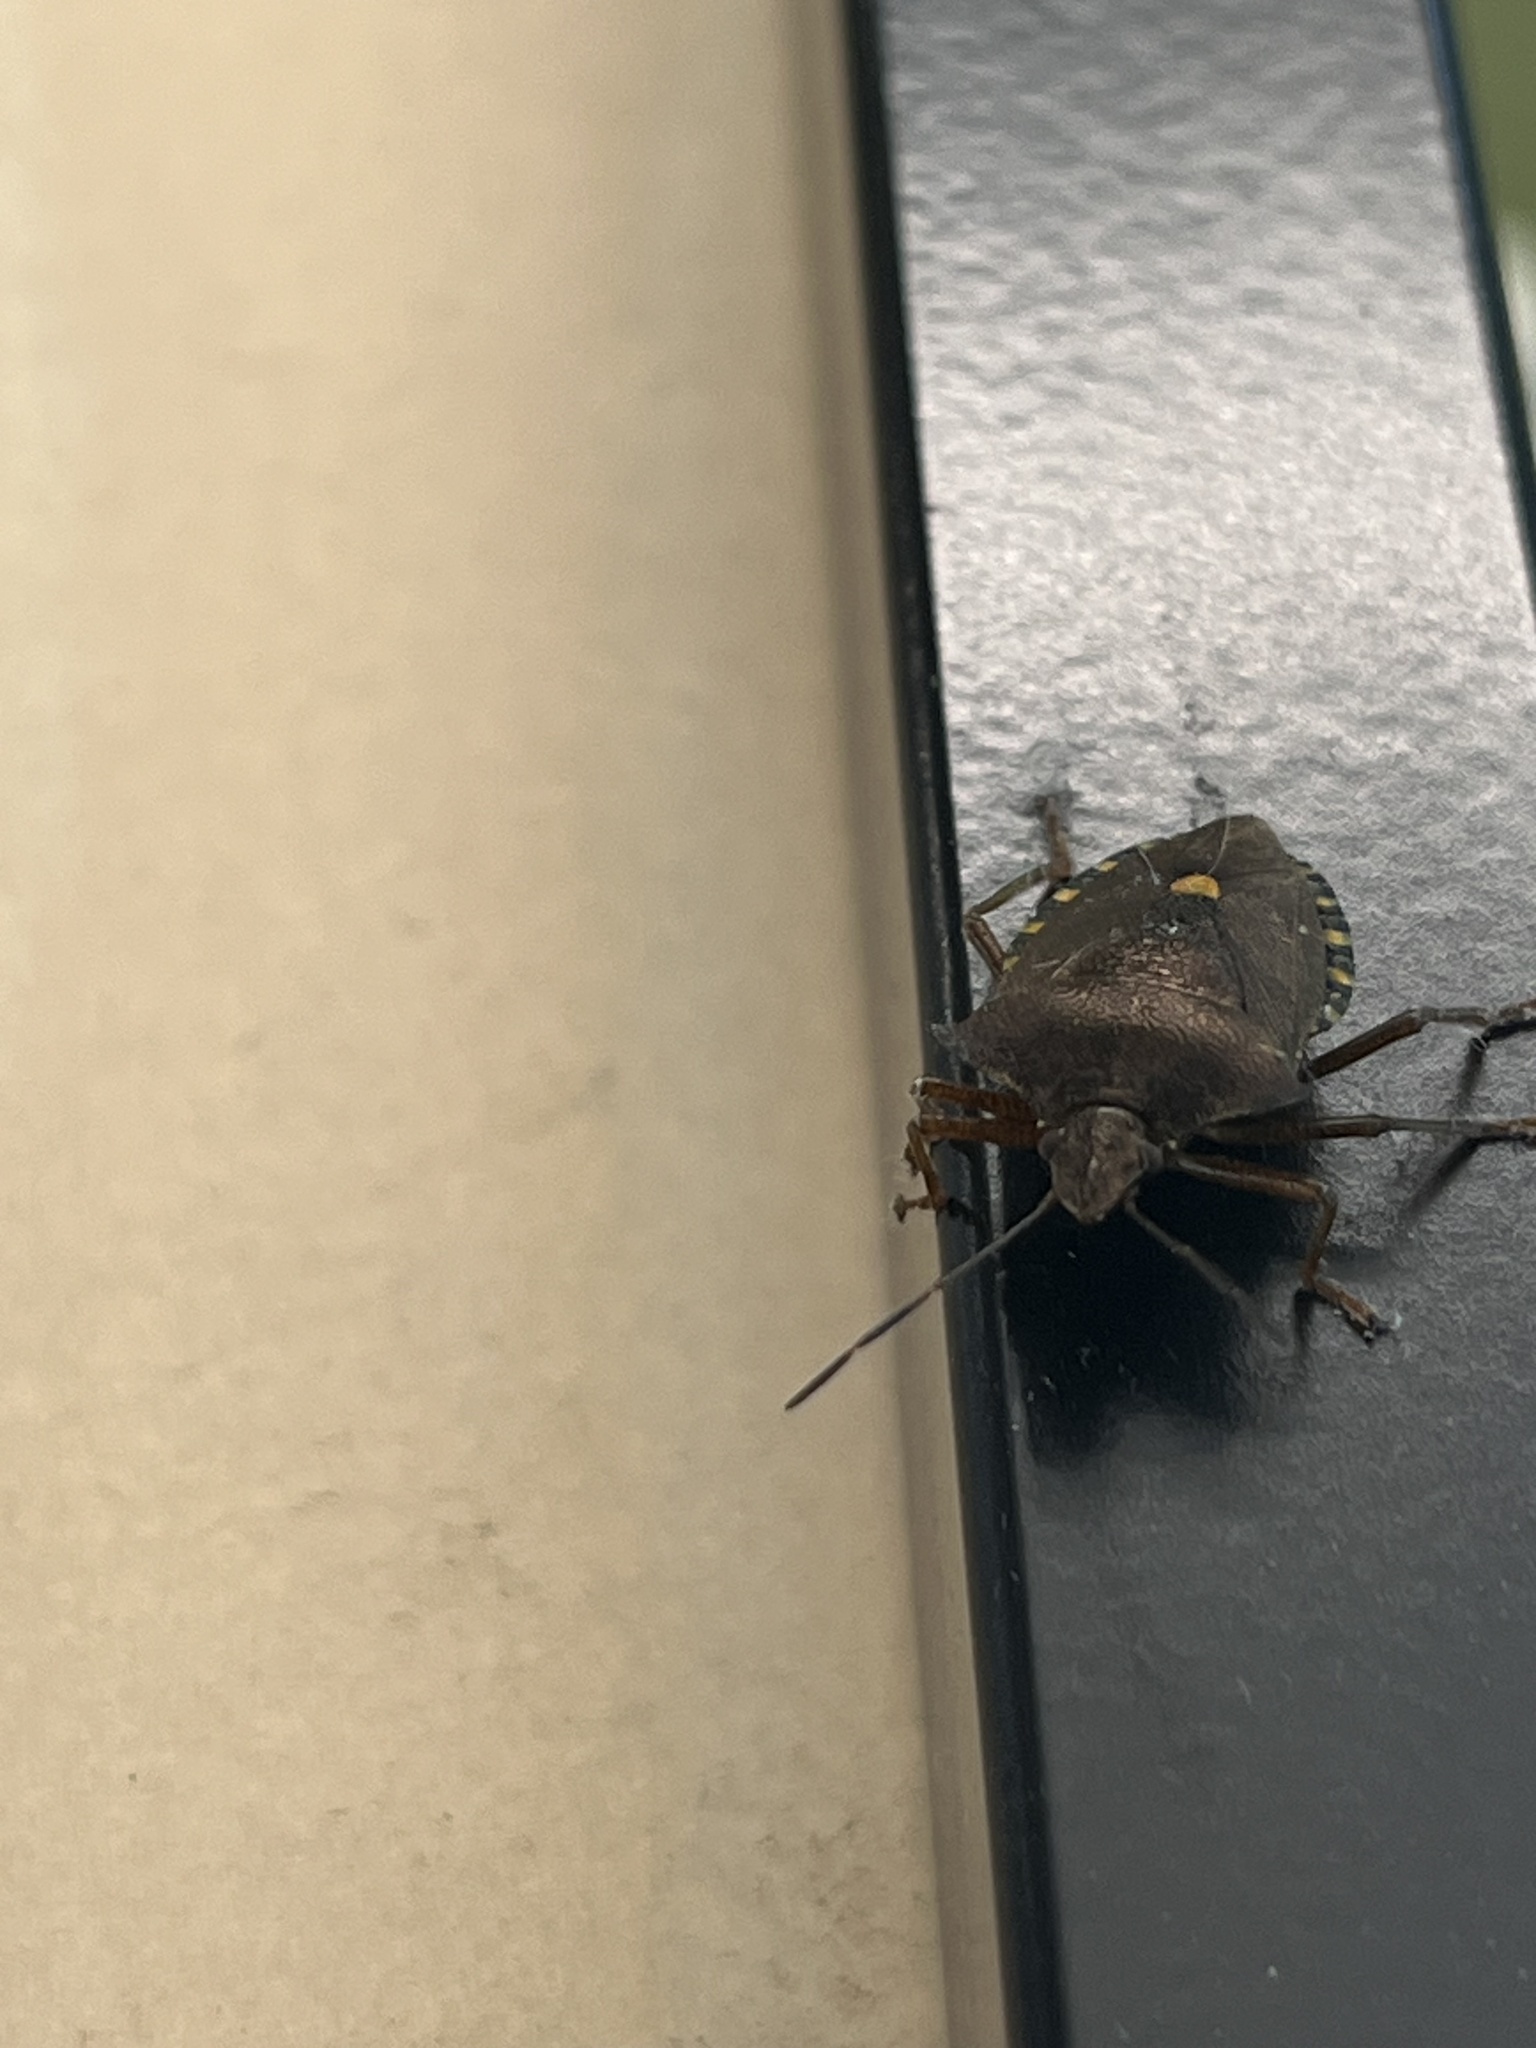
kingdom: Animalia
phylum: Arthropoda
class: Insecta
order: Hemiptera
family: Pentatomidae
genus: Pentatoma
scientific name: Pentatoma rufipes
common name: Forest bug
